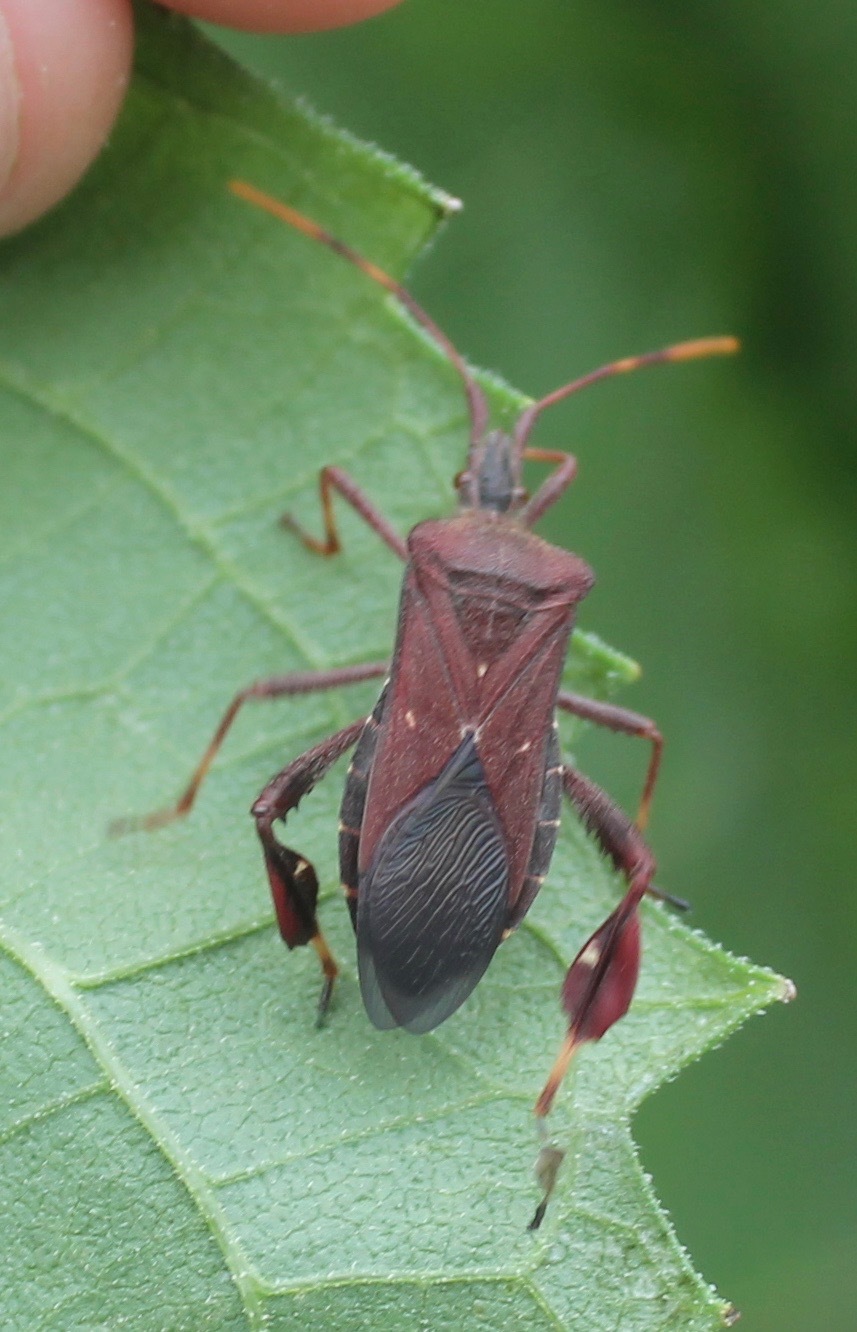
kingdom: Animalia
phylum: Arthropoda
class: Insecta
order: Hemiptera
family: Coreidae
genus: Leptoglossus
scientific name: Leptoglossus oppositus
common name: Northern leaf-footed bug
